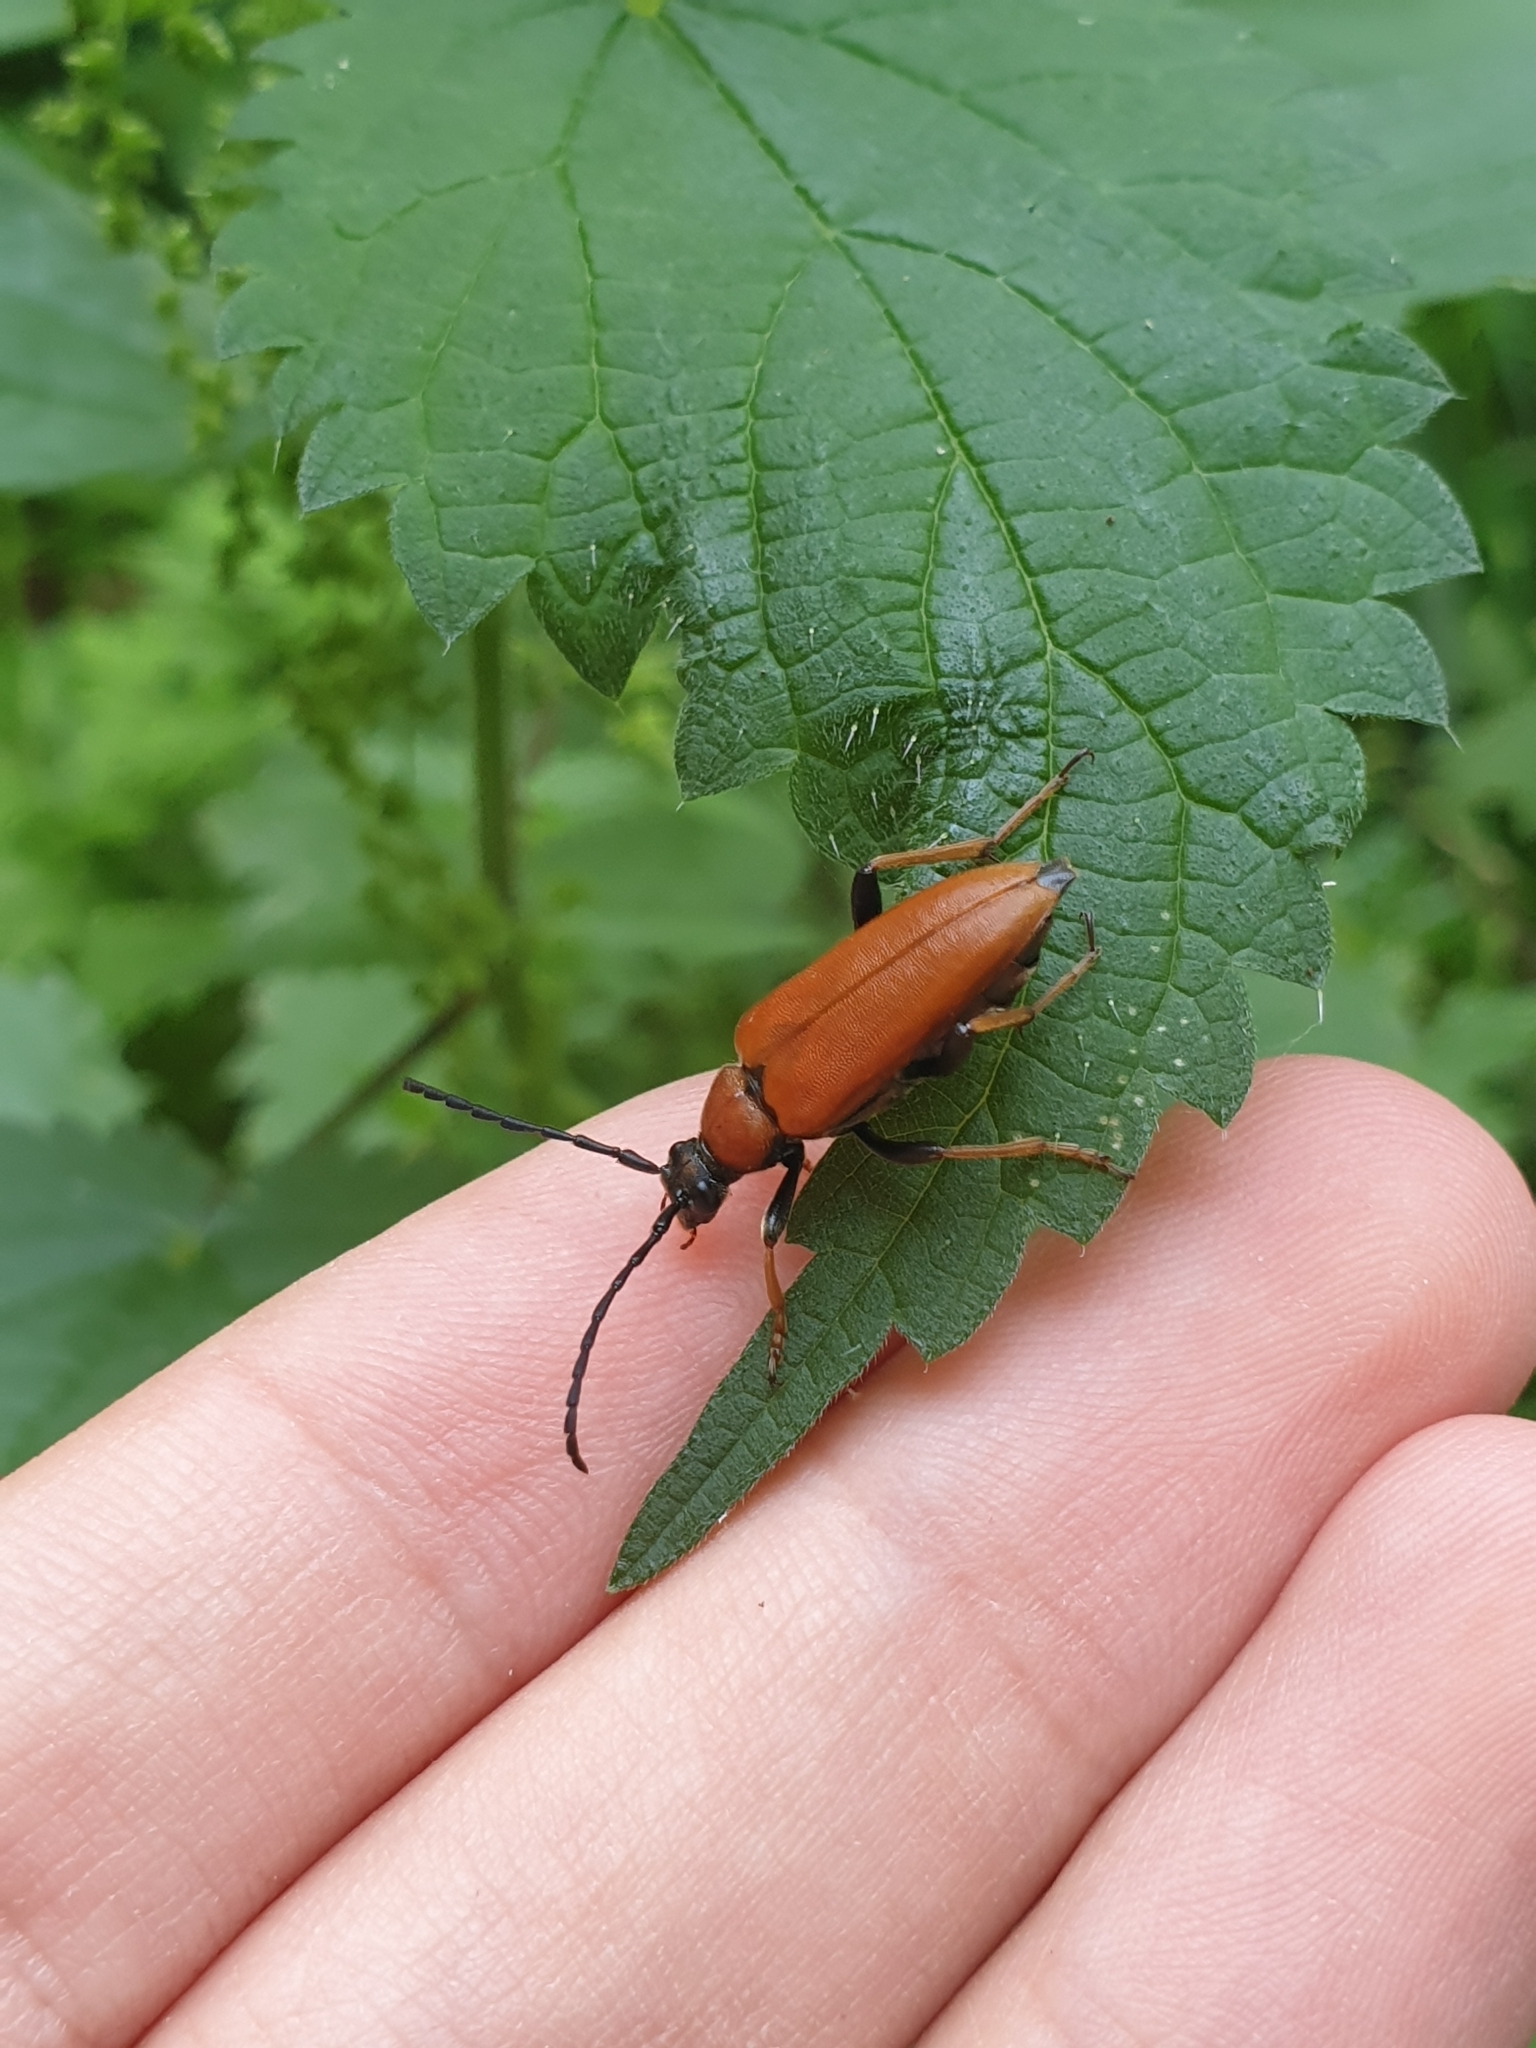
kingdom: Animalia
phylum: Arthropoda
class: Insecta
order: Coleoptera
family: Cerambycidae
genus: Stictoleptura
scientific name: Stictoleptura rubra
